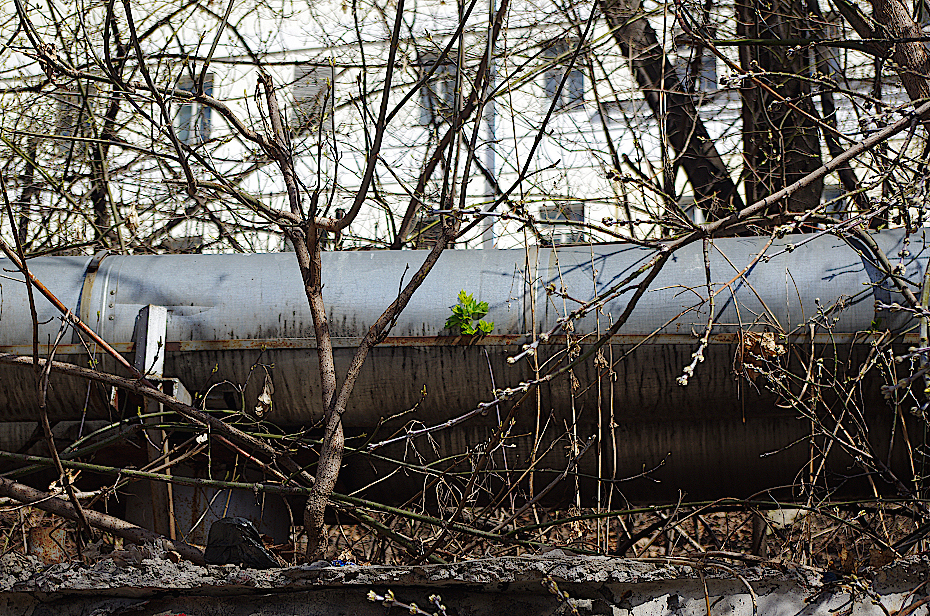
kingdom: Plantae
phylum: Tracheophyta
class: Magnoliopsida
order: Sapindales
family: Sapindaceae
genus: Acer
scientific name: Acer negundo
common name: Ashleaf maple
